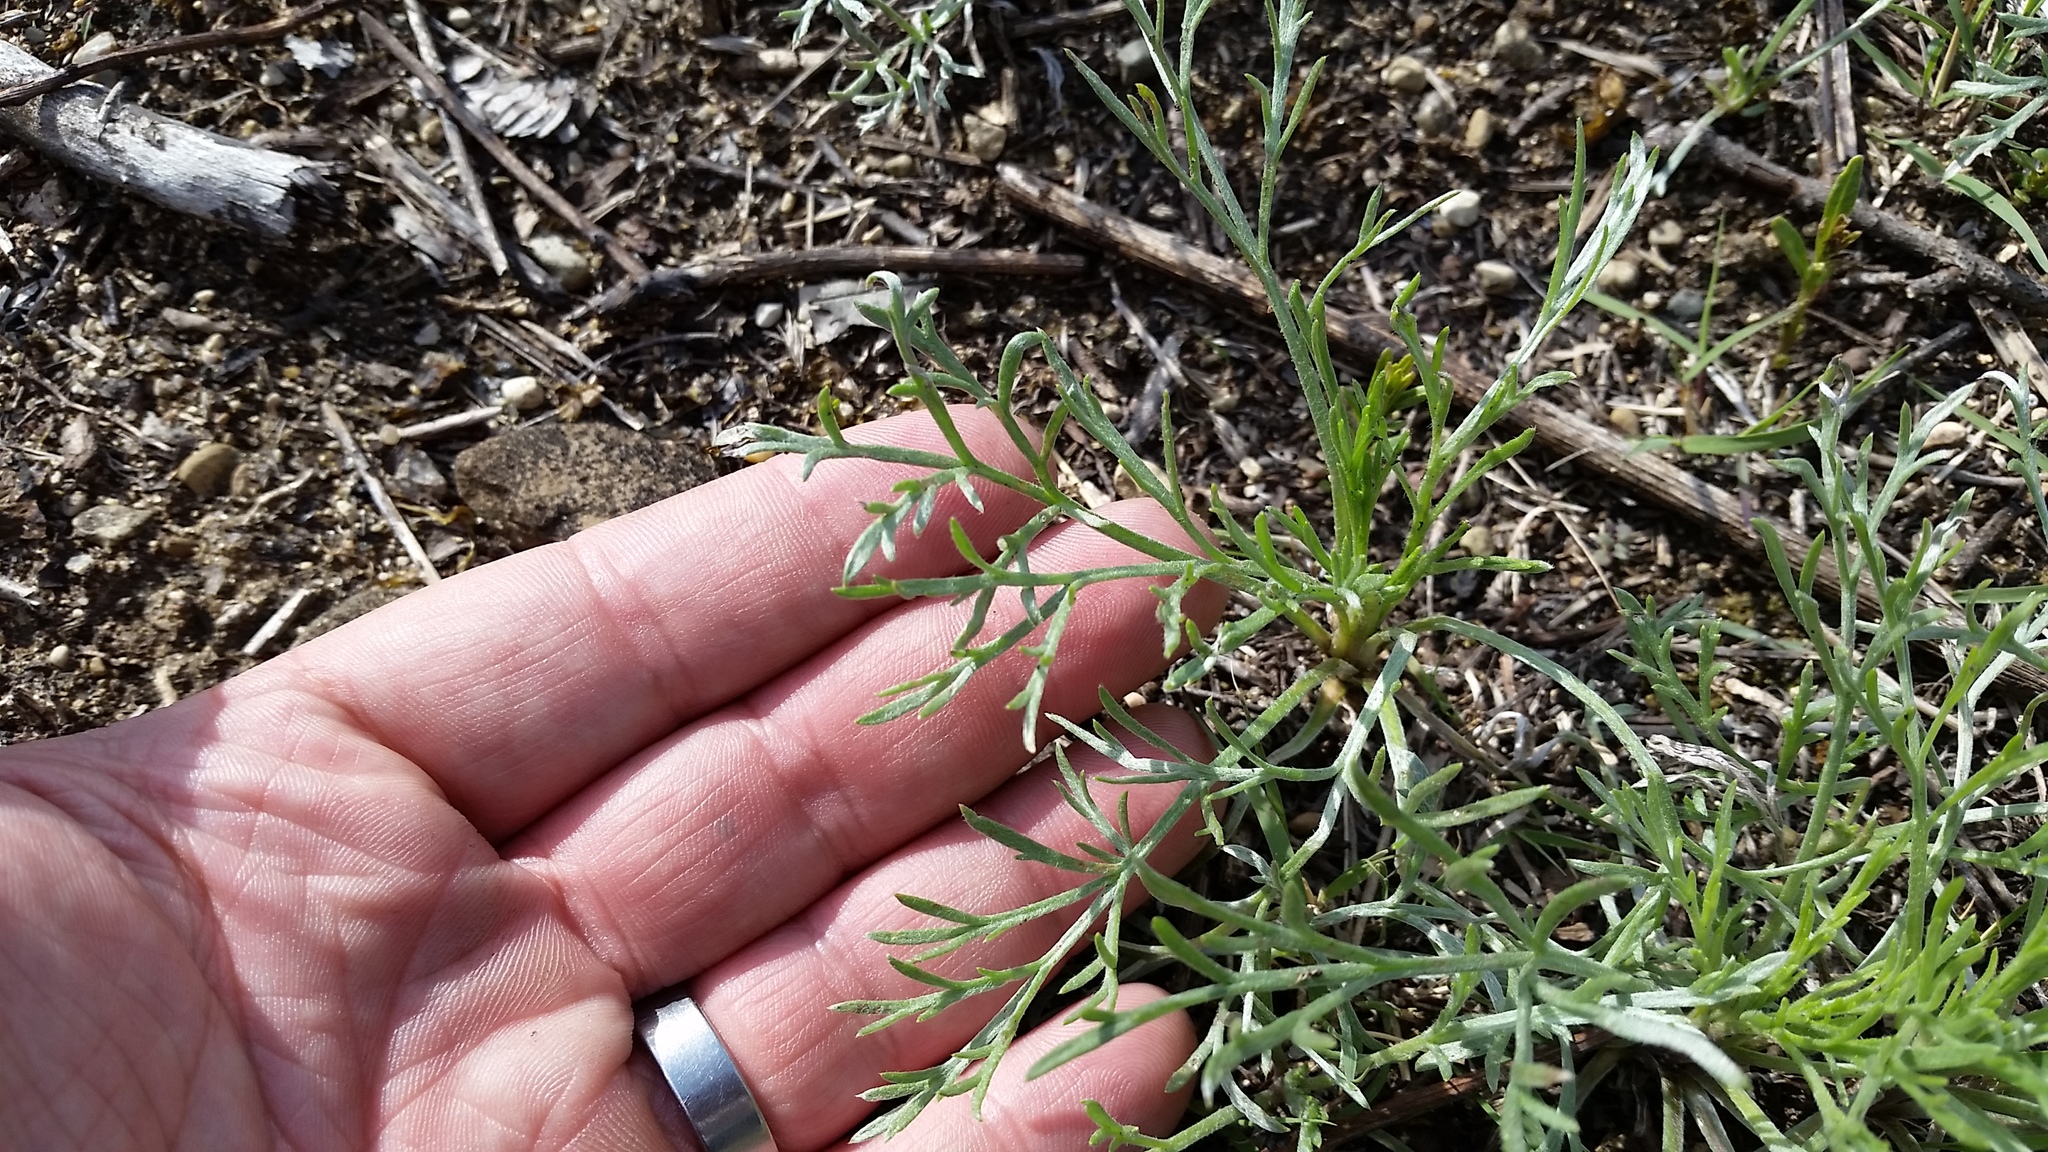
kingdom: Plantae
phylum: Tracheophyta
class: Magnoliopsida
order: Asterales
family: Asteraceae
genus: Artemisia
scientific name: Artemisia campestris
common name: Field wormwood
